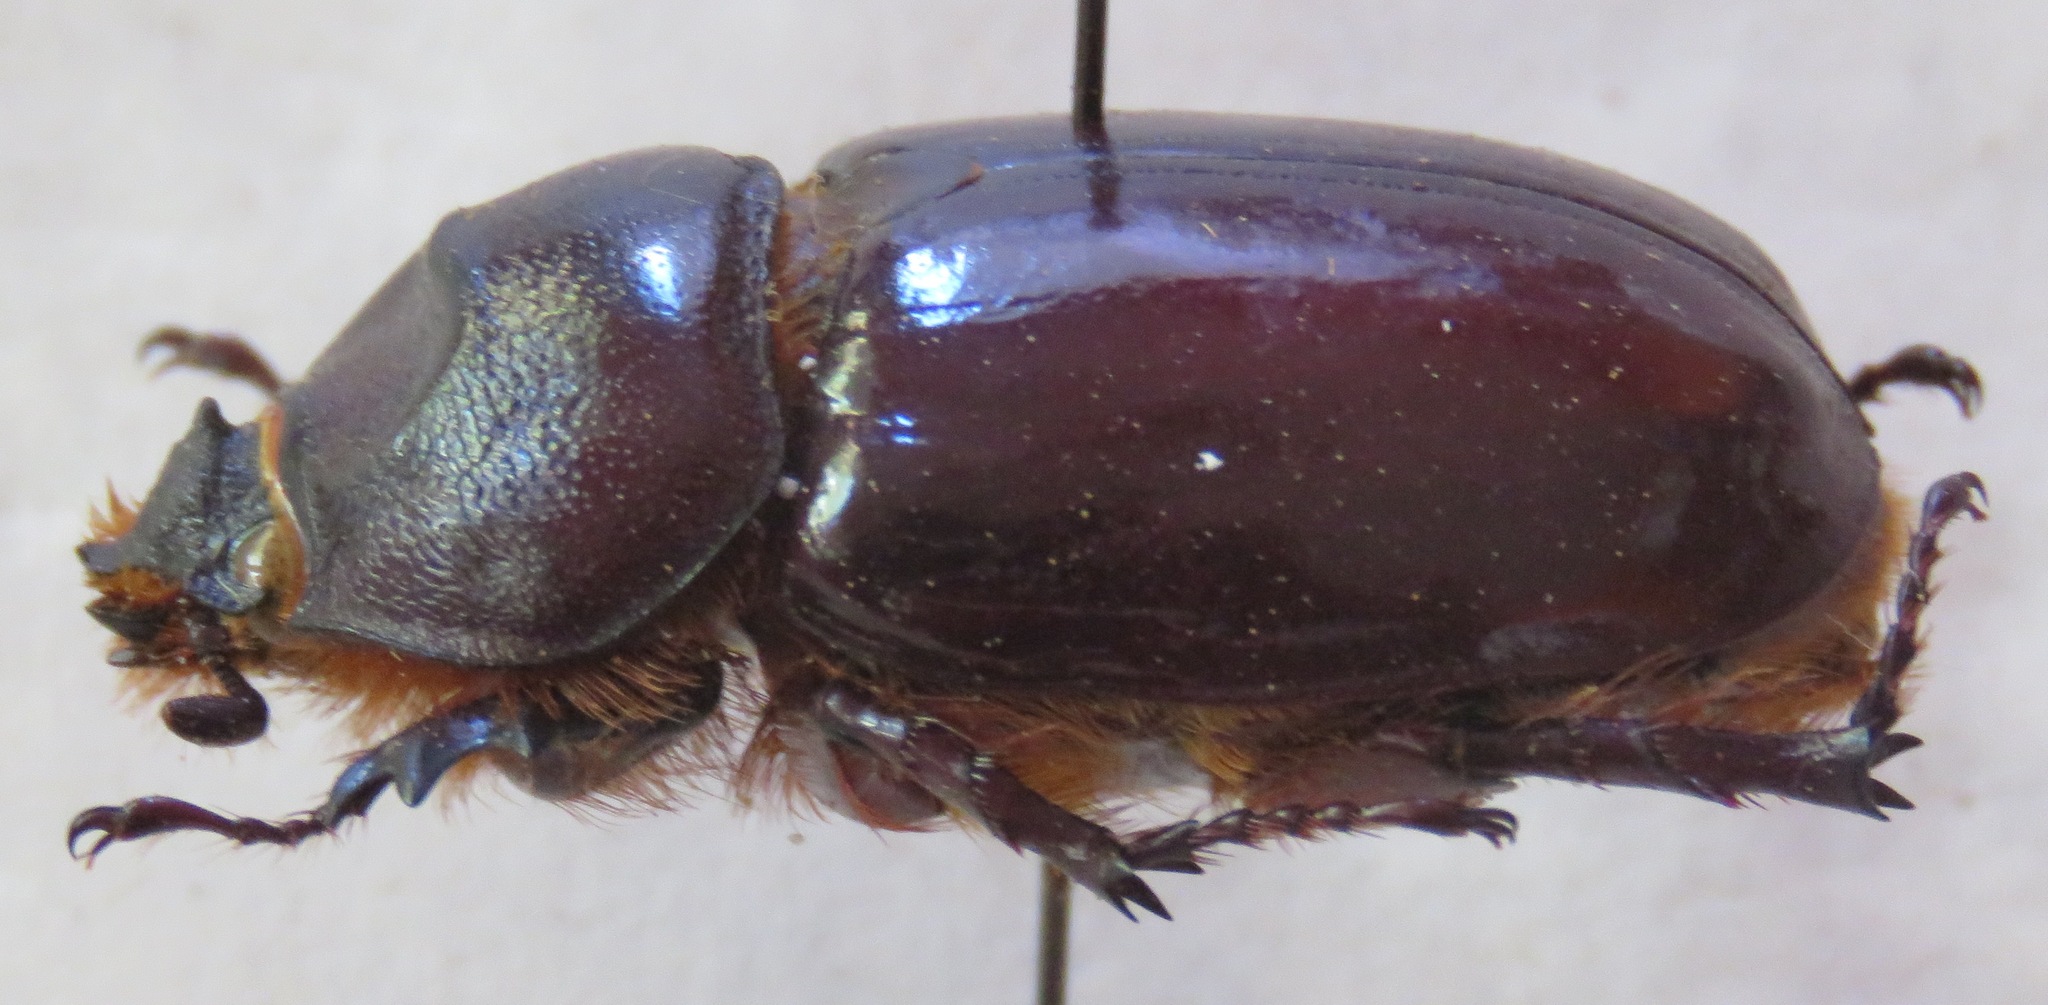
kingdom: Animalia
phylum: Arthropoda
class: Insecta
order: Coleoptera
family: Scarabaeidae
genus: Oryctes
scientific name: Oryctes nasicornis
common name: European rhinoceros beetle
